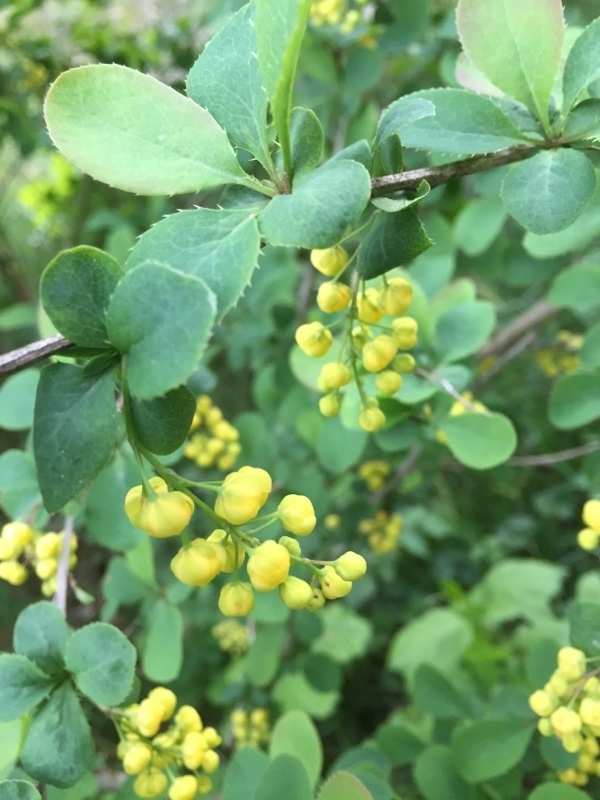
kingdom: Plantae
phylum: Tracheophyta
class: Magnoliopsida
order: Ranunculales
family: Berberidaceae
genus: Berberis
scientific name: Berberis vulgaris
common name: Barberry
